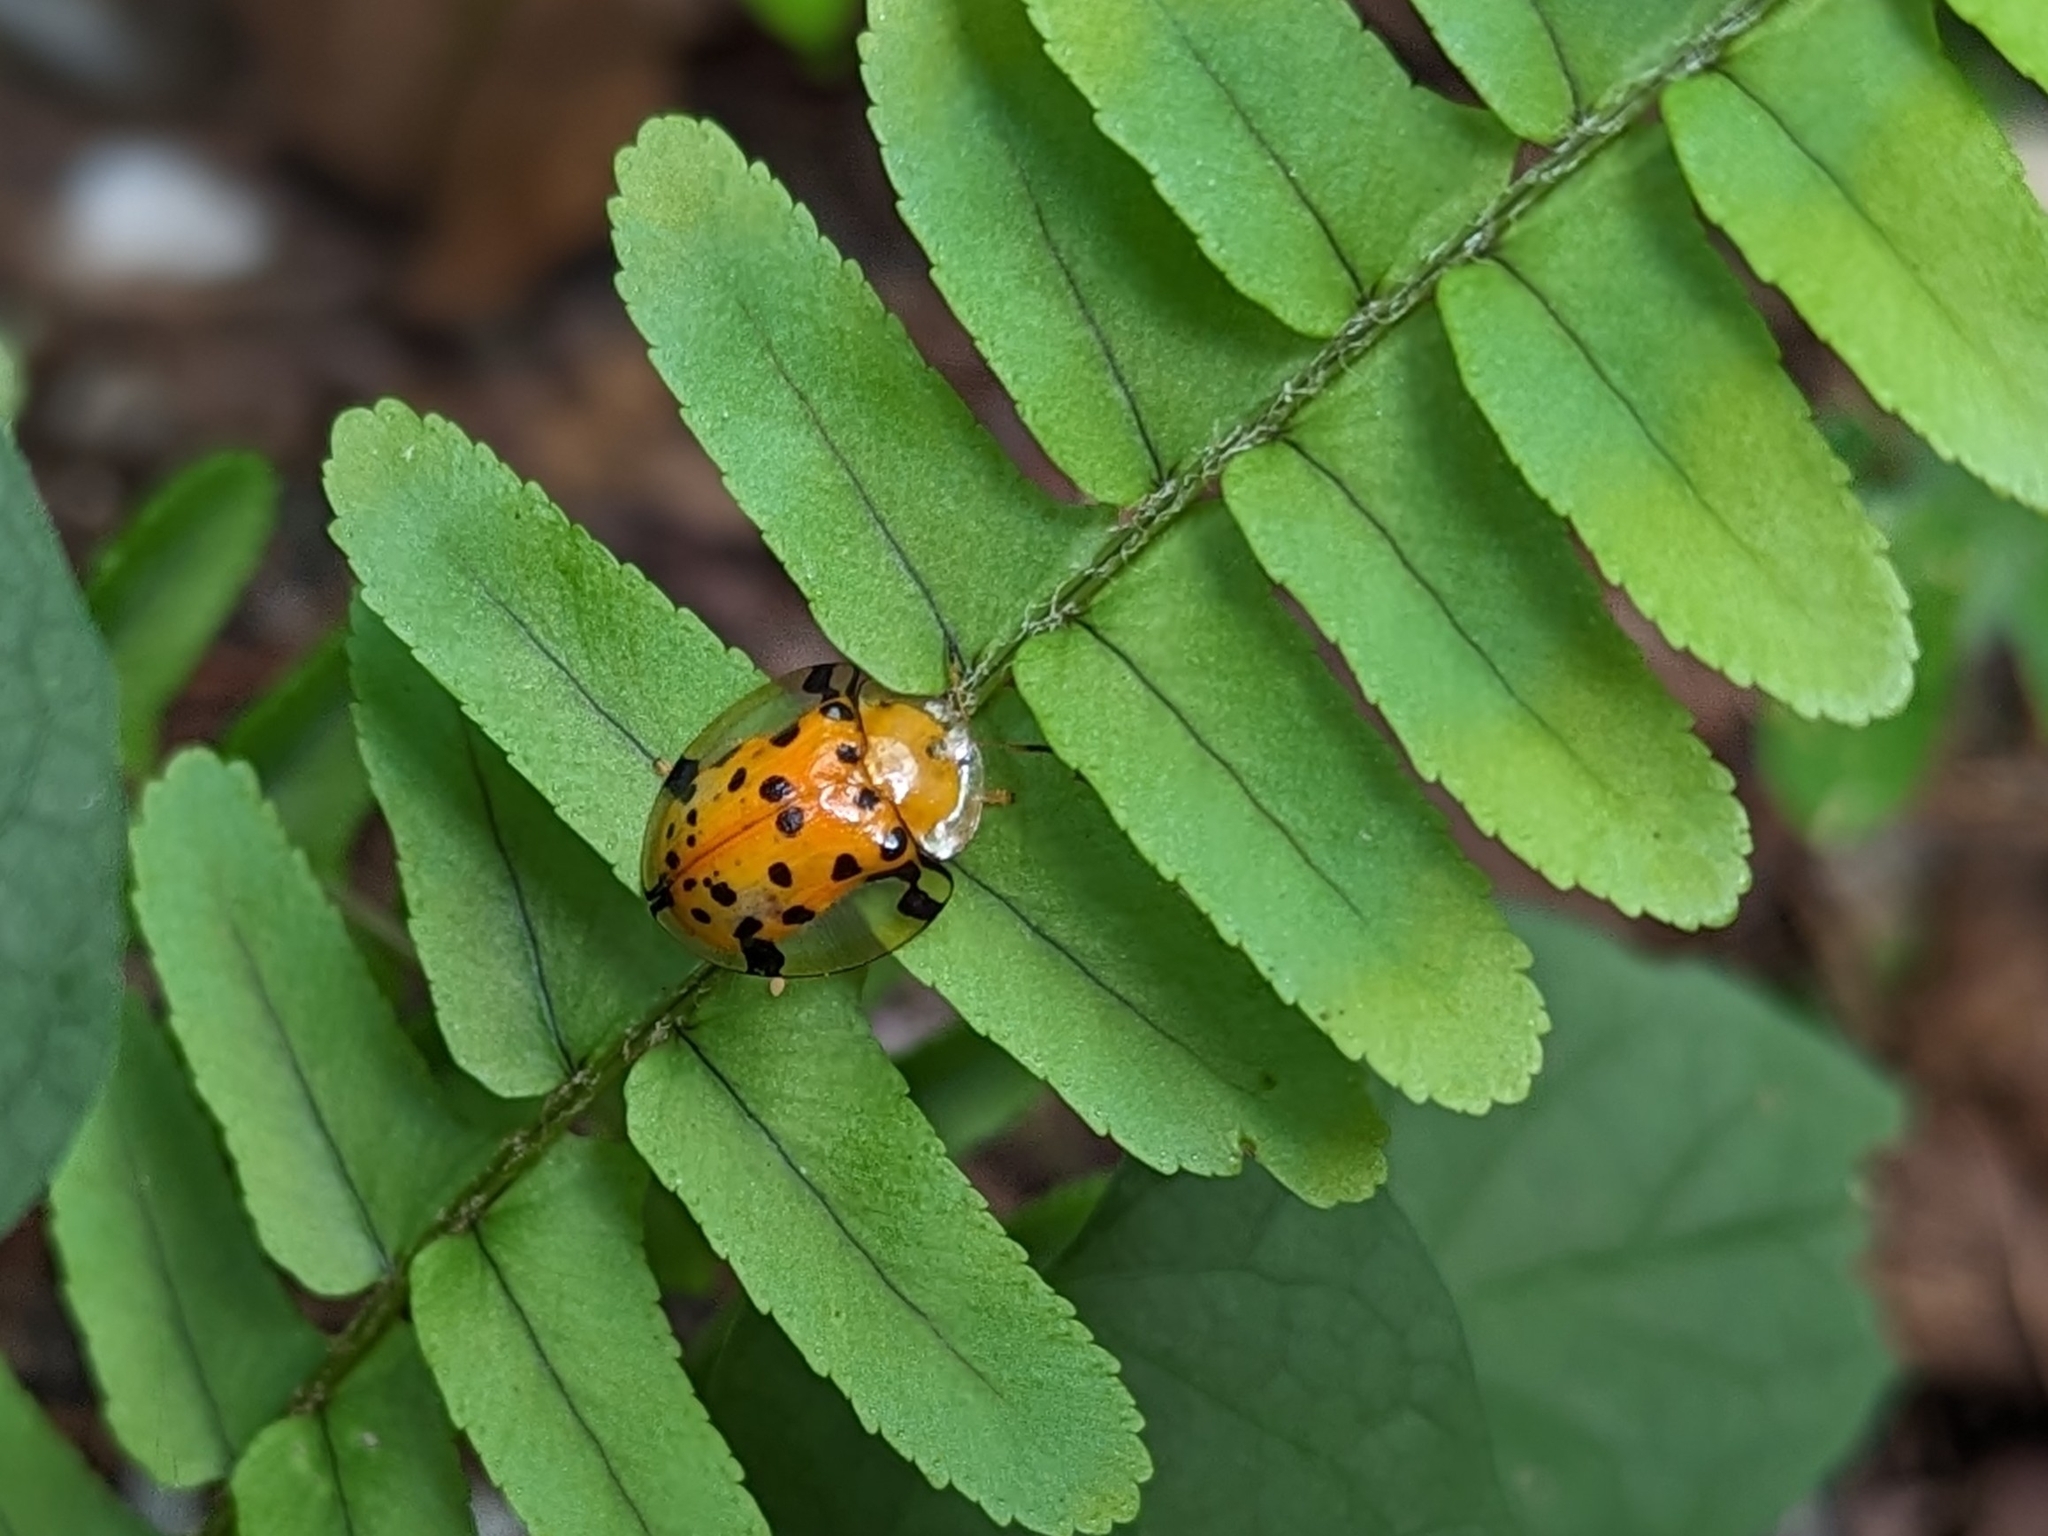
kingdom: Animalia
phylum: Arthropoda
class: Insecta
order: Coleoptera
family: Chrysomelidae
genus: Aspidimorpha
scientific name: Aspidimorpha miliaris
